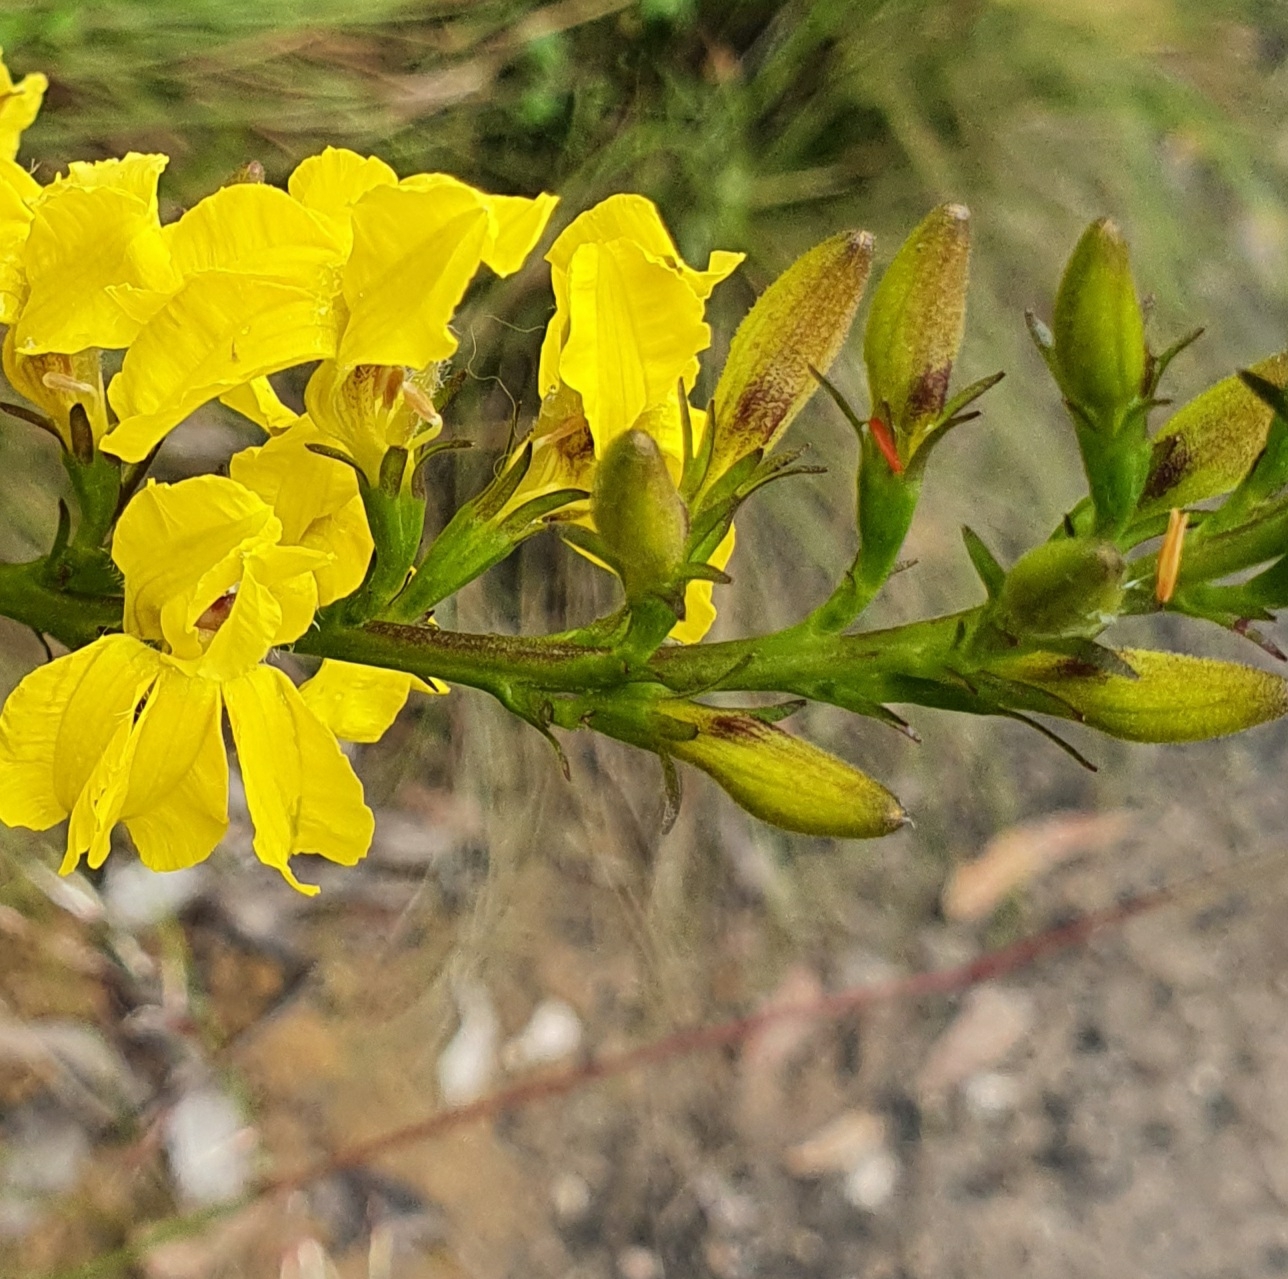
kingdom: Plantae
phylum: Tracheophyta
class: Magnoliopsida
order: Asterales
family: Goodeniaceae
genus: Goodenia
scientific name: Goodenia decurrens
